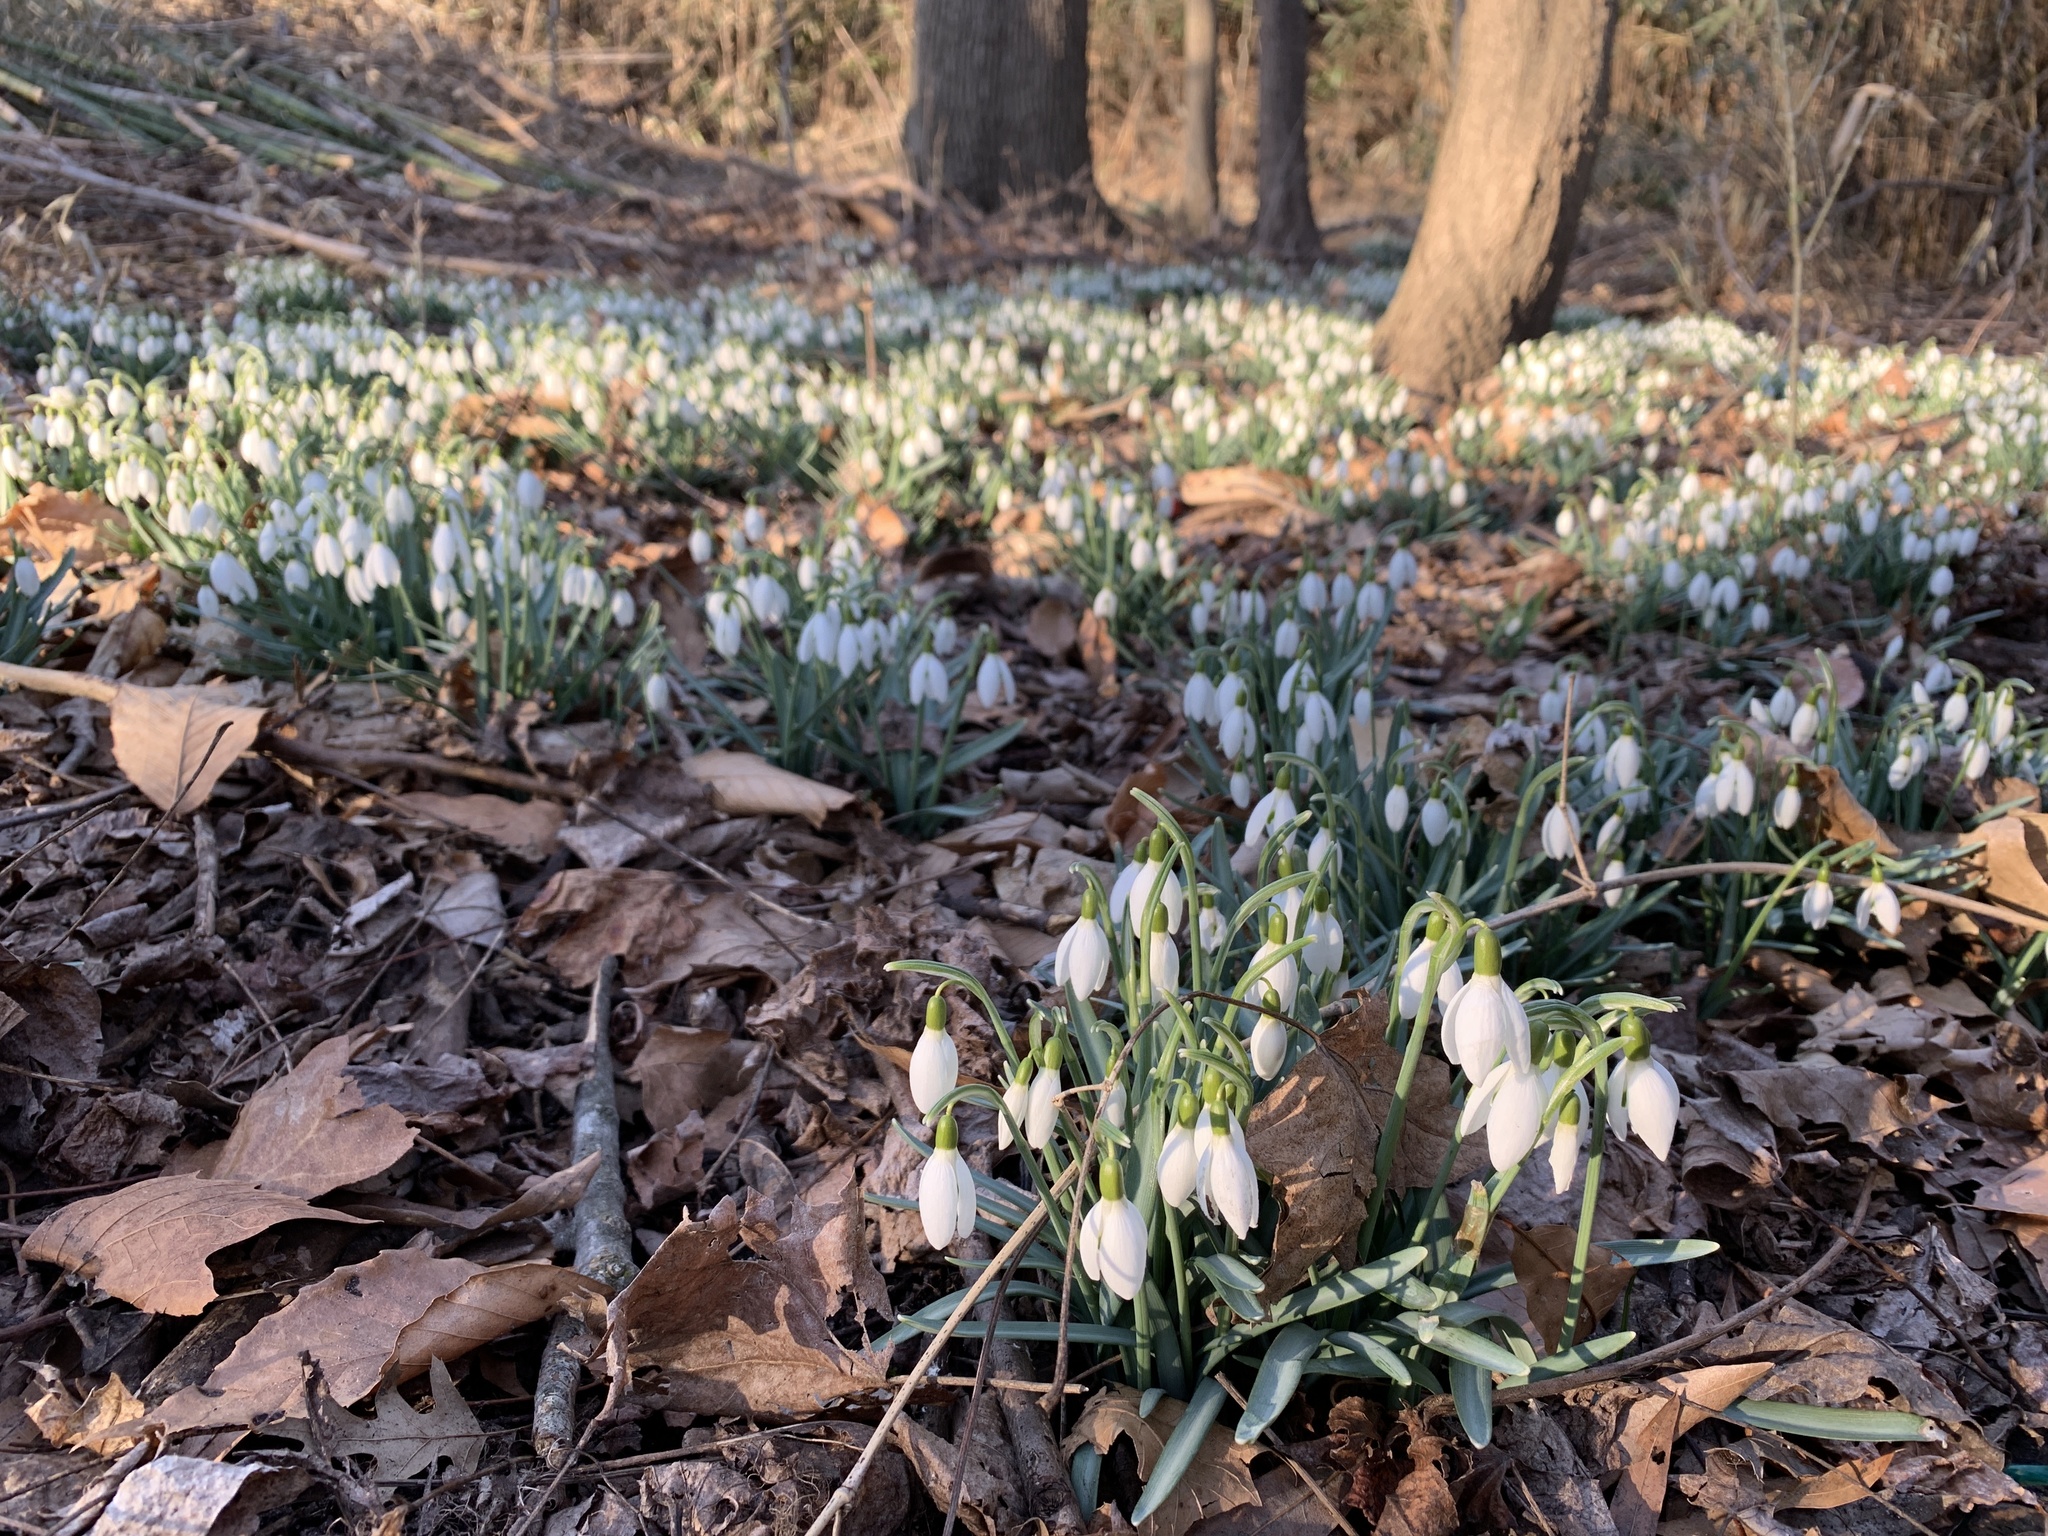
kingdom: Plantae
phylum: Tracheophyta
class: Liliopsida
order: Asparagales
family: Amaryllidaceae
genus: Galanthus
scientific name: Galanthus nivalis
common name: Snowdrop
